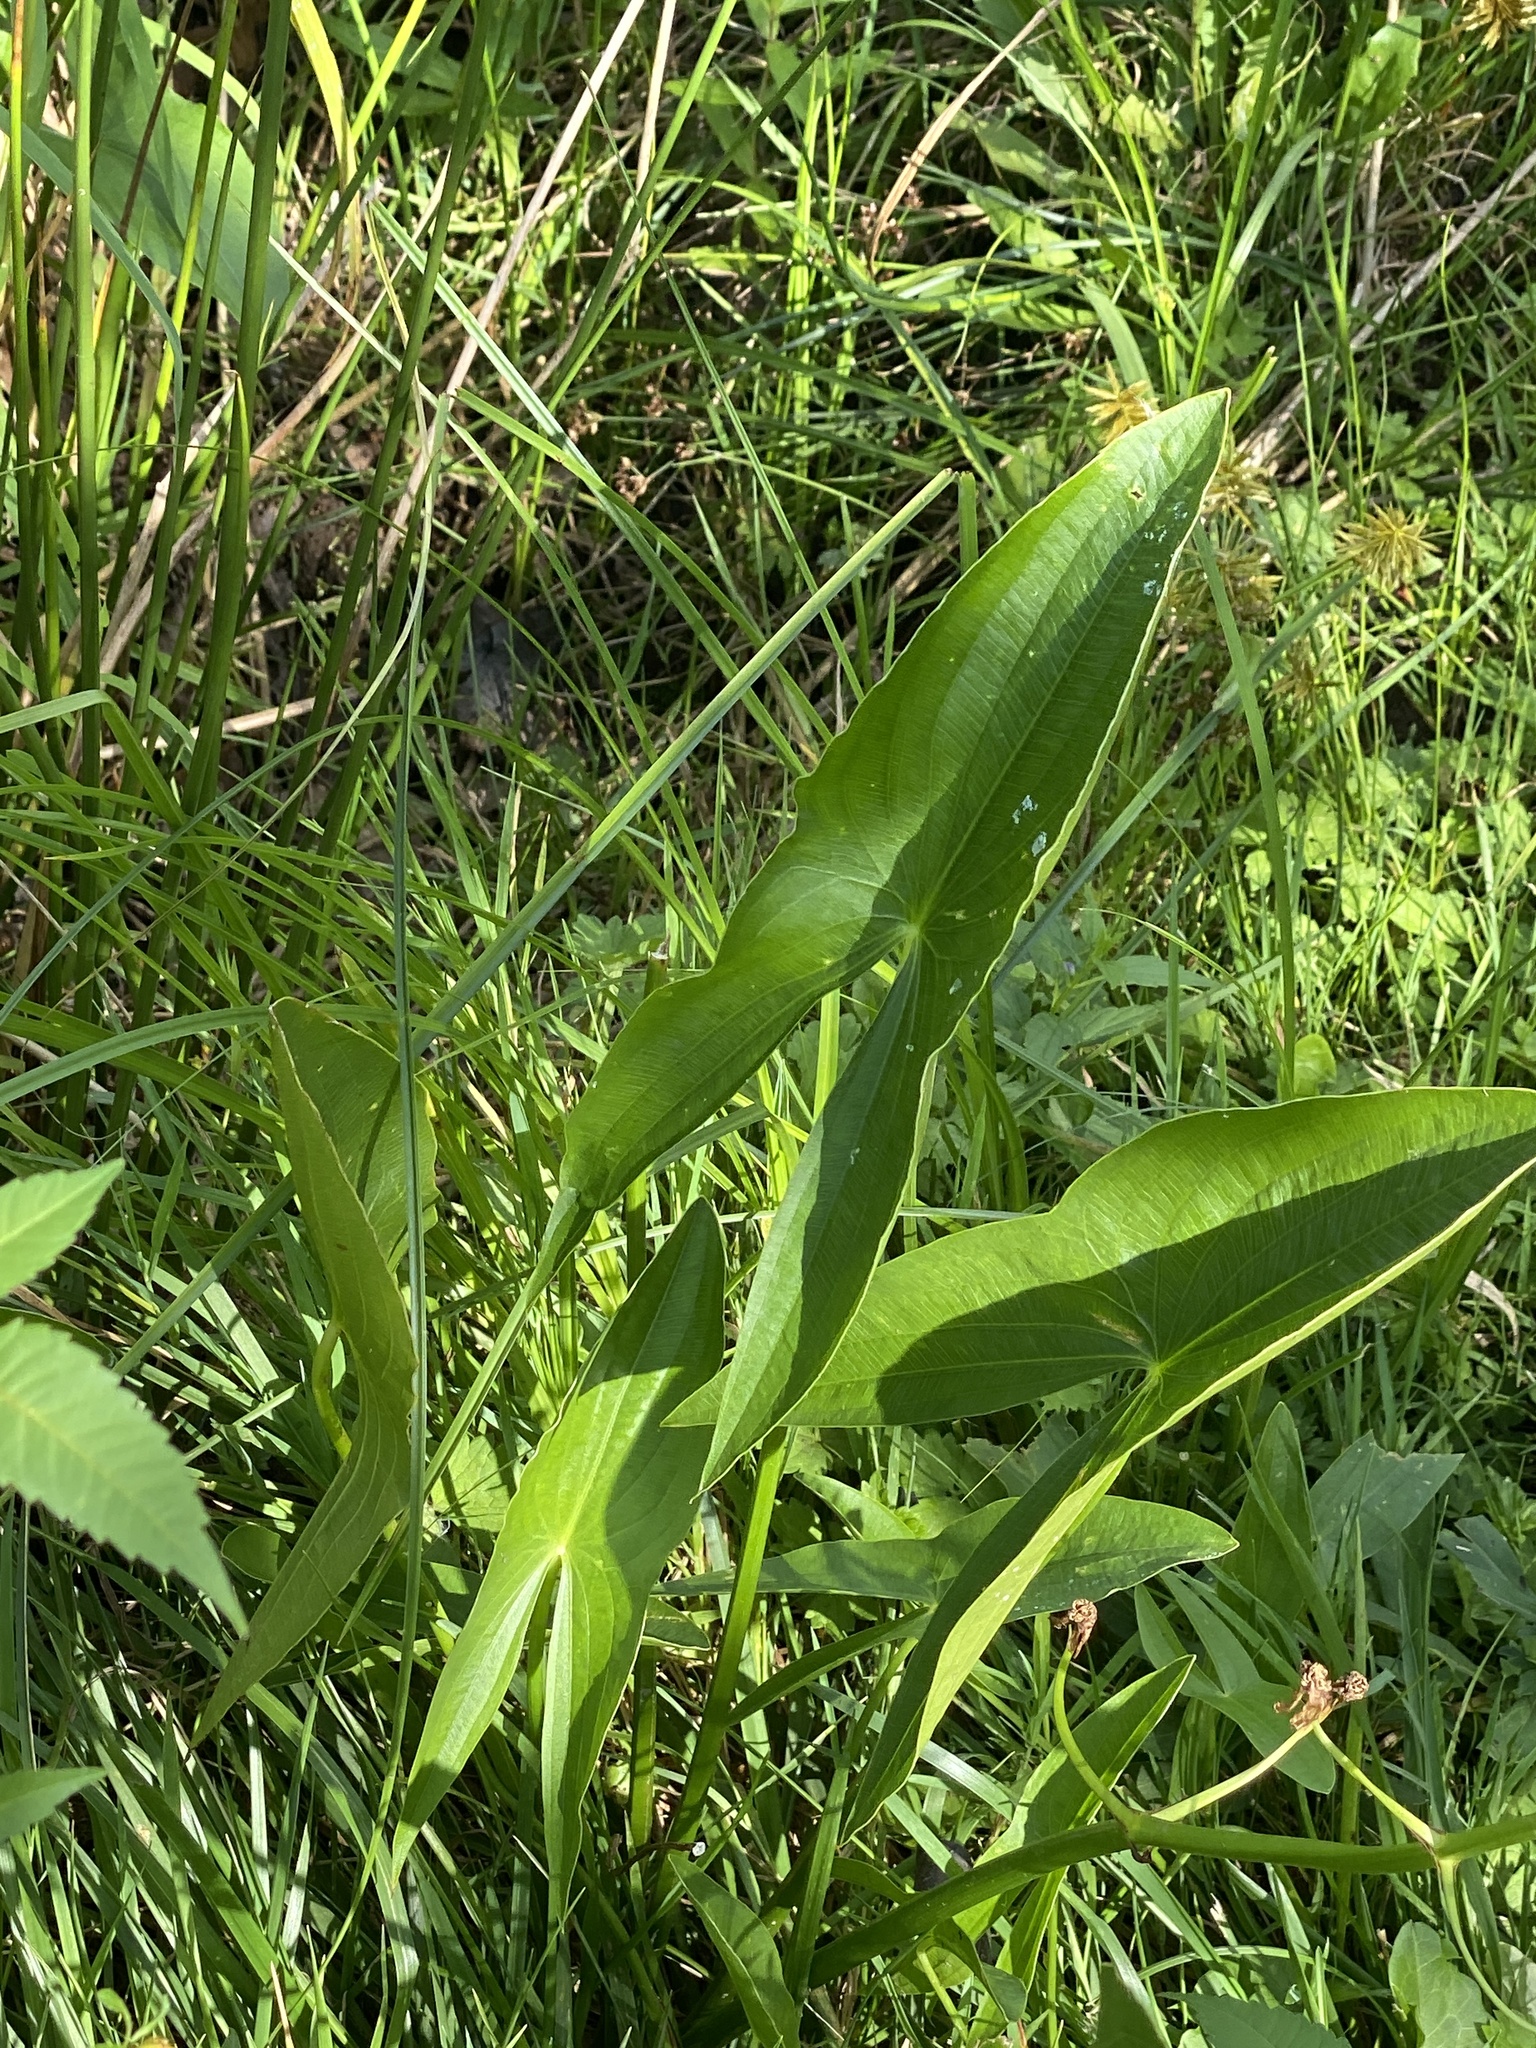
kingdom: Plantae
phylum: Tracheophyta
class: Liliopsida
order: Alismatales
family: Alismataceae
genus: Sagittaria
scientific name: Sagittaria latifolia
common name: Duck-potato
